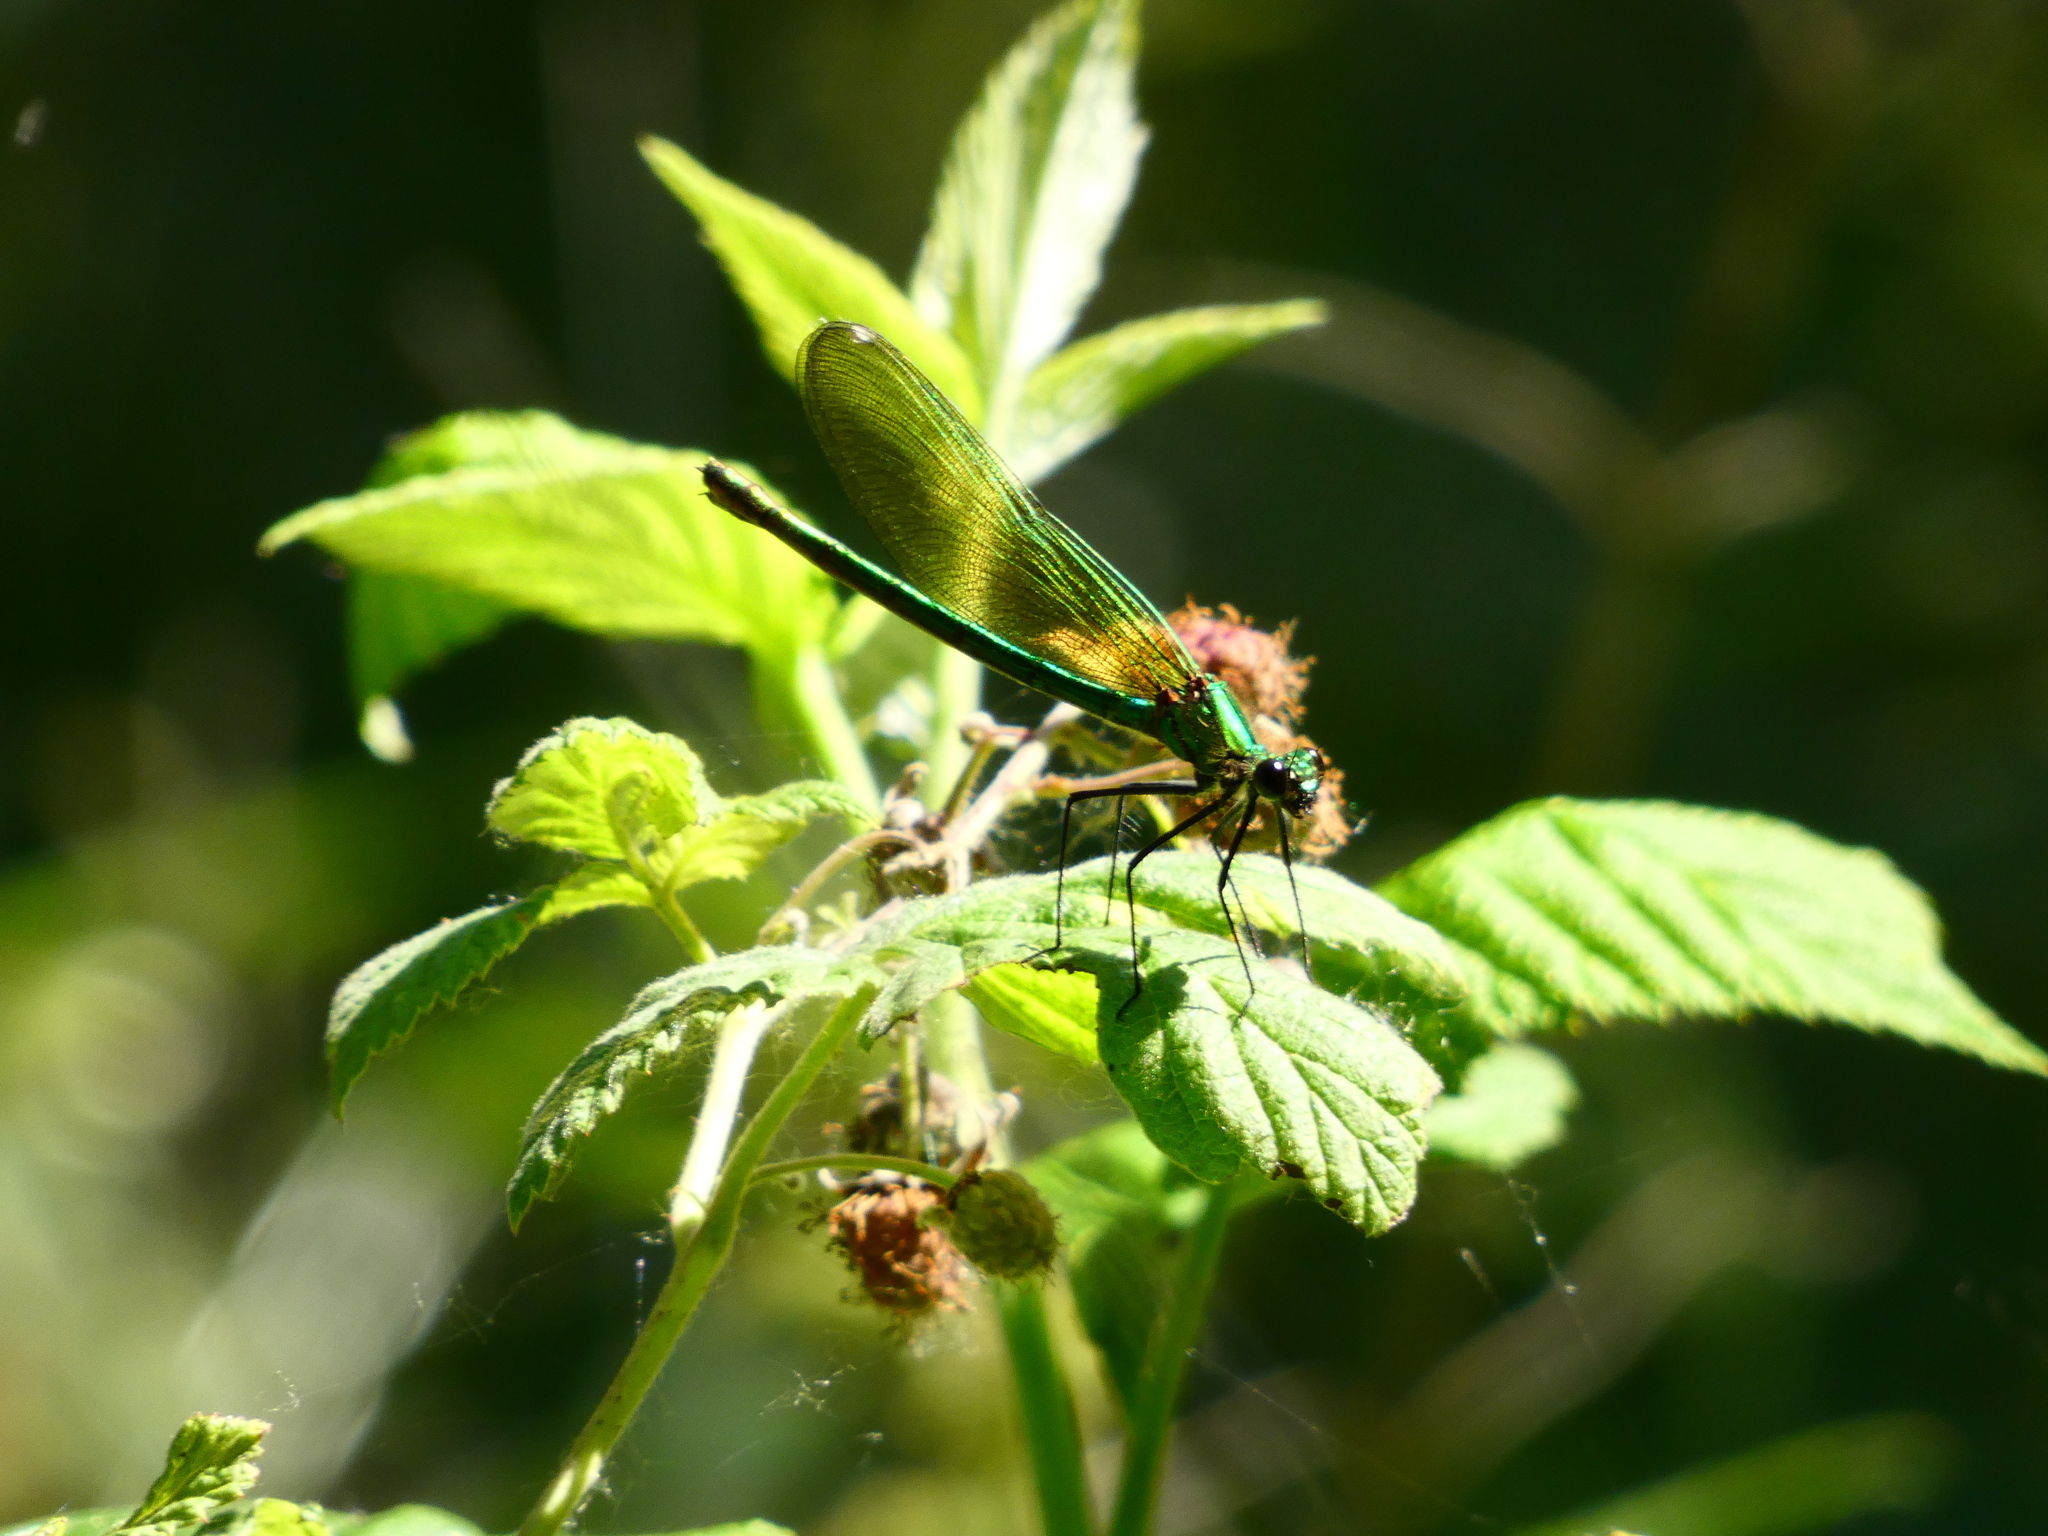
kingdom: Animalia
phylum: Arthropoda
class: Insecta
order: Odonata
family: Calopterygidae
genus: Calopteryx
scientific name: Calopteryx splendens
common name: Banded demoiselle
